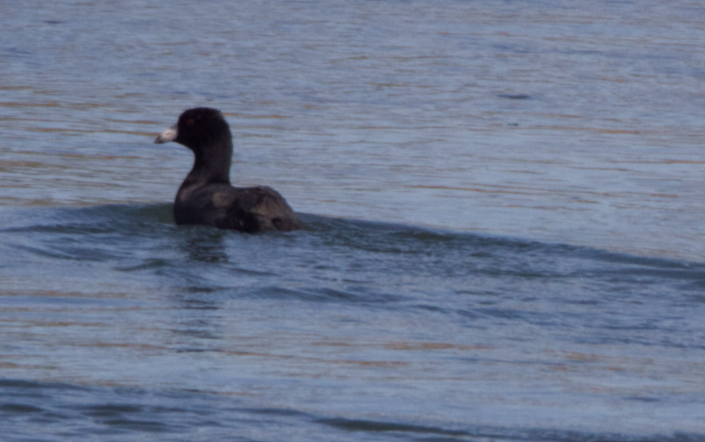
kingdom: Animalia
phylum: Chordata
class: Aves
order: Gruiformes
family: Rallidae
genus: Fulica
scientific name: Fulica americana
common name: American coot
